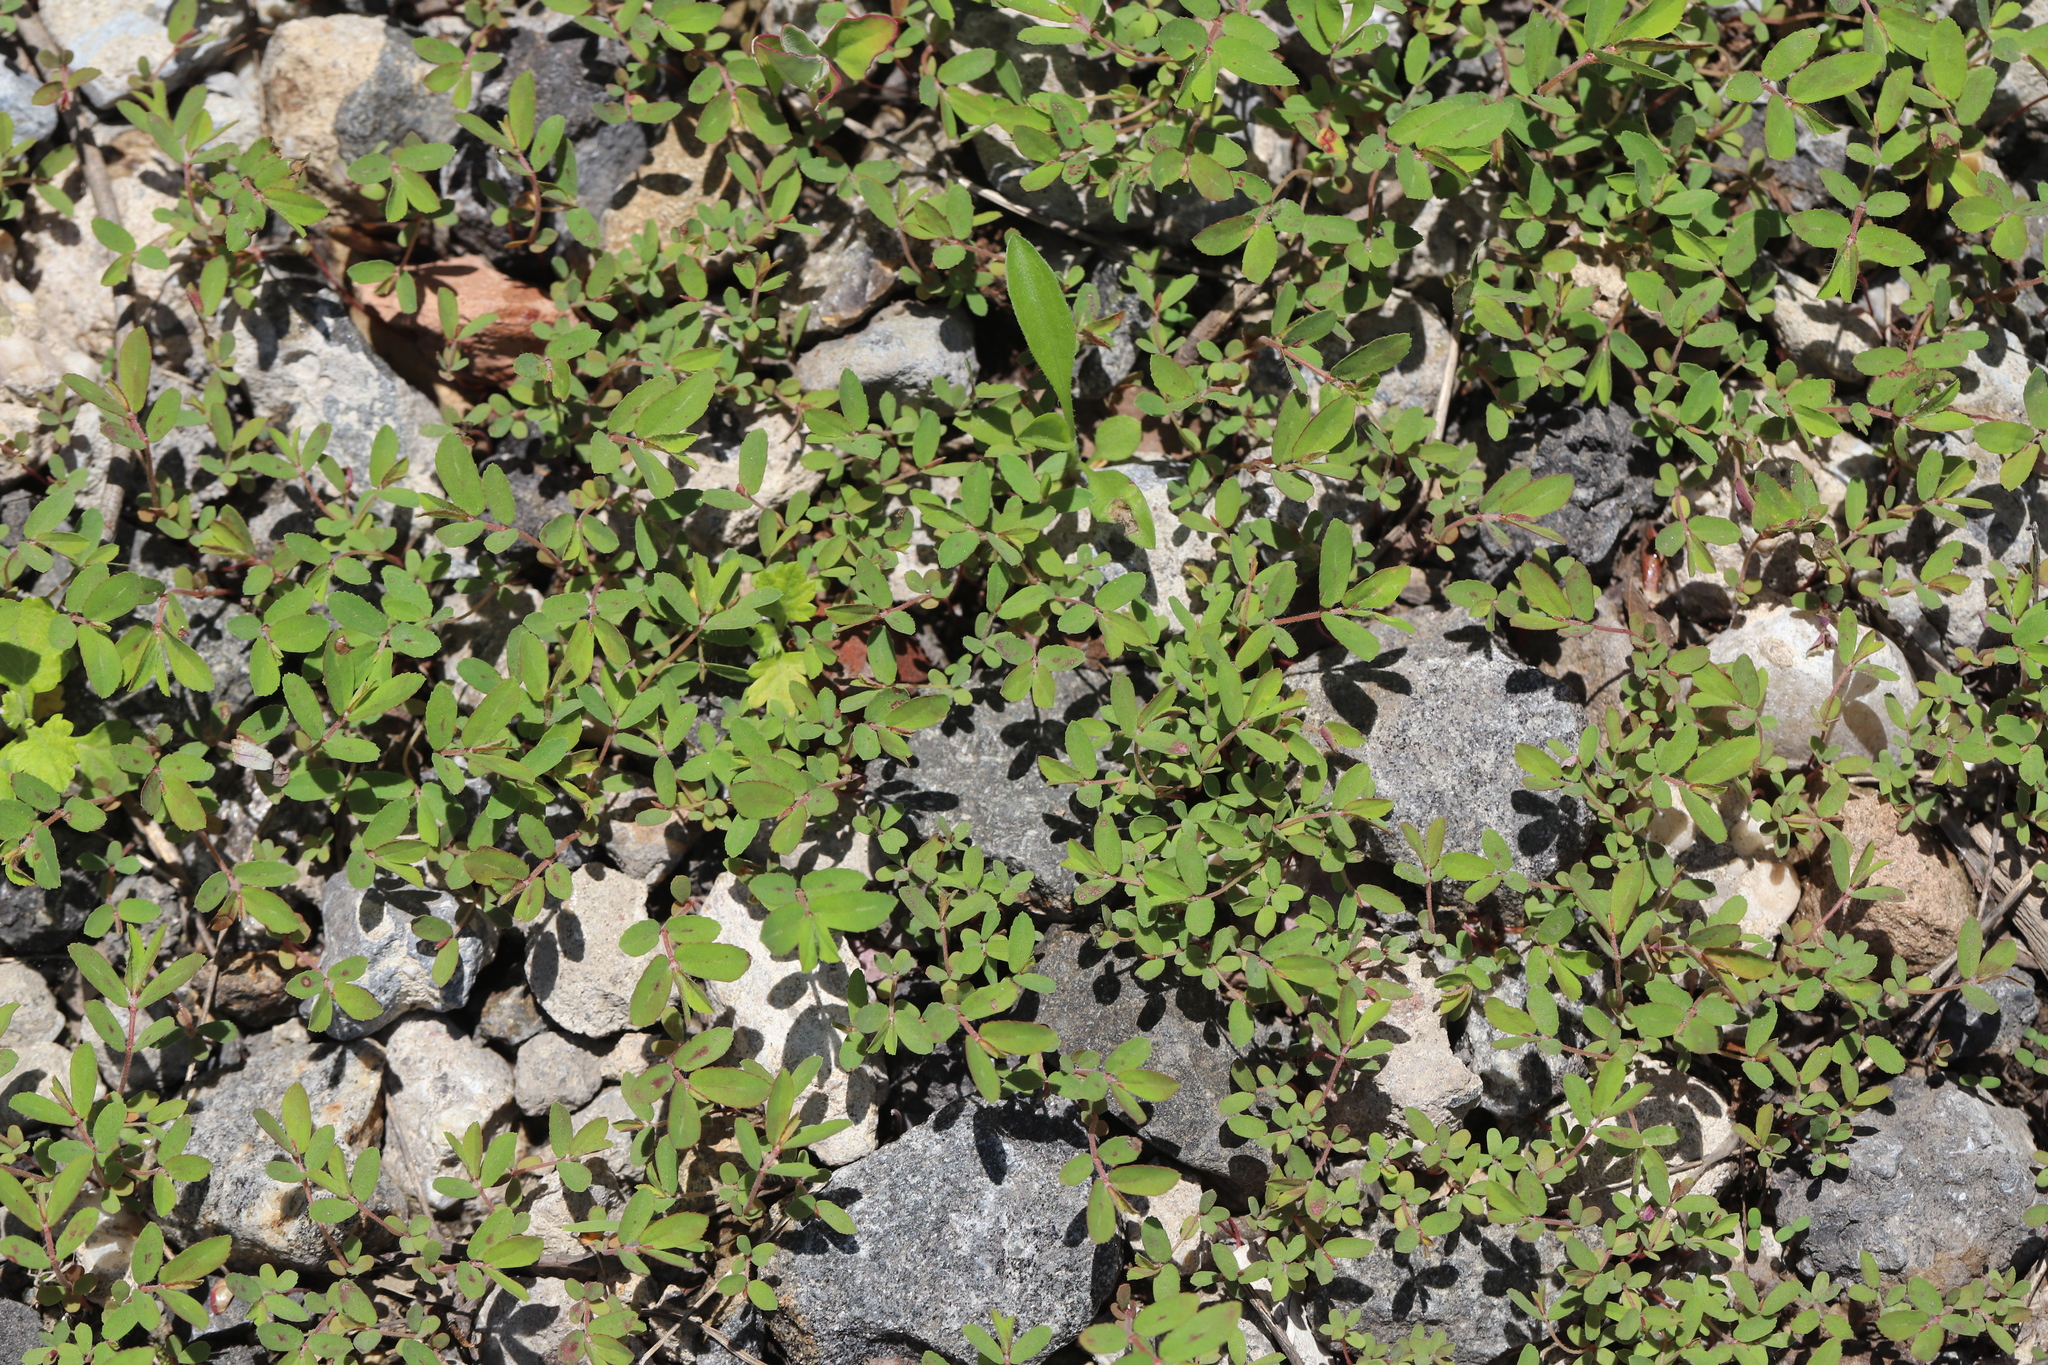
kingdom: Plantae
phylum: Tracheophyta
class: Magnoliopsida
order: Malpighiales
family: Euphorbiaceae
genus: Euphorbia
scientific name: Euphorbia nutans
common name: Eyebane
